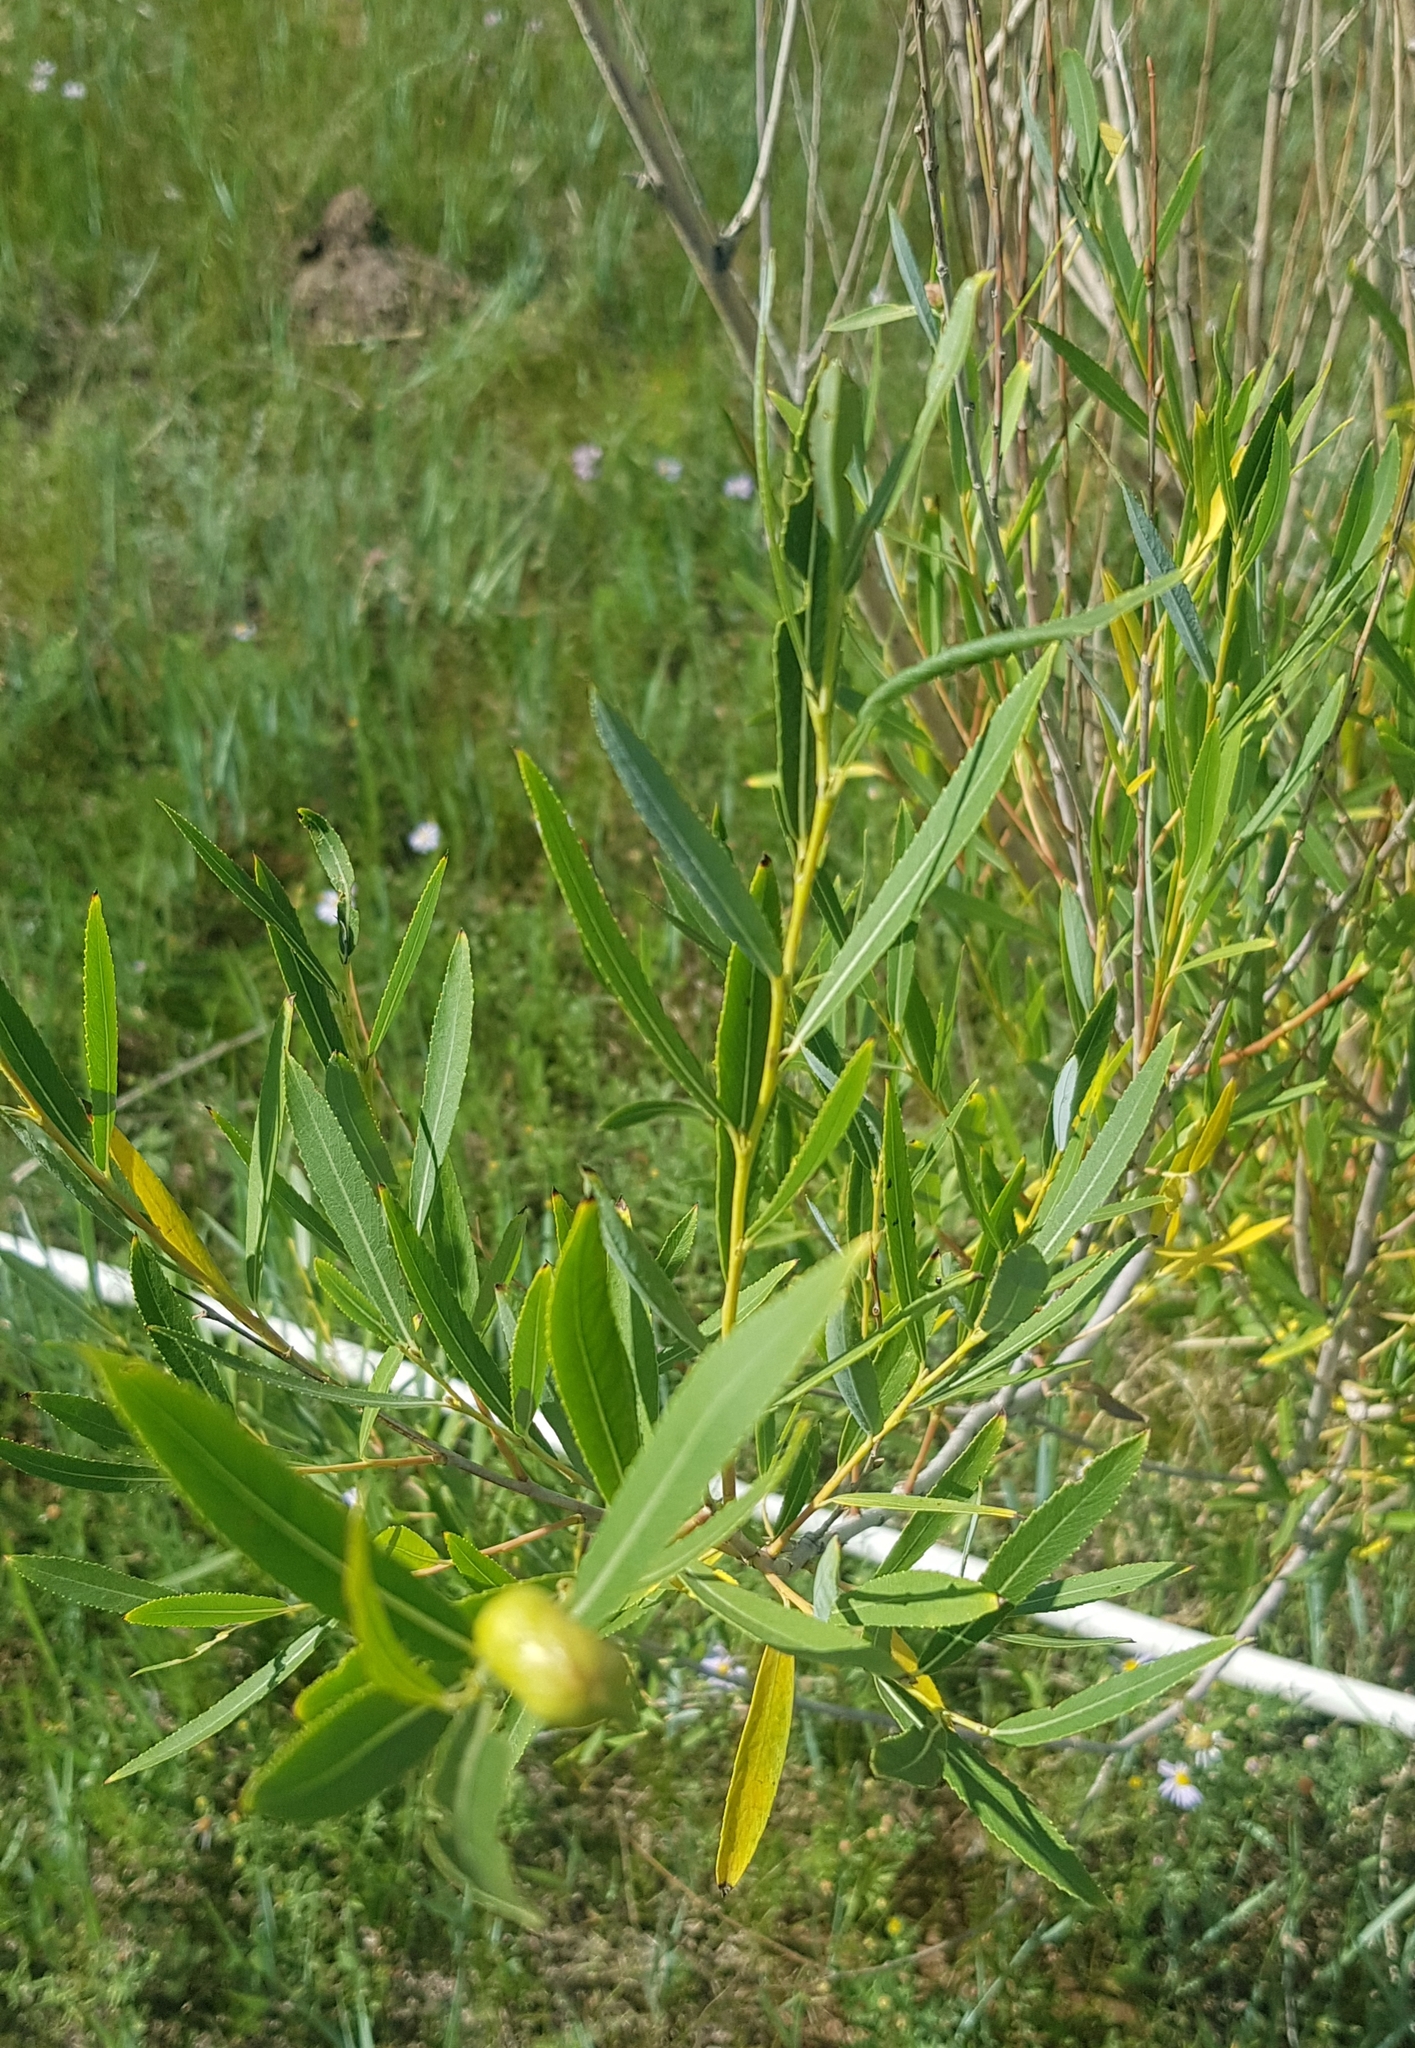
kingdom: Plantae
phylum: Tracheophyta
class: Magnoliopsida
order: Malpighiales
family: Salicaceae
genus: Salix
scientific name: Salix purpurea
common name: Purple willow
